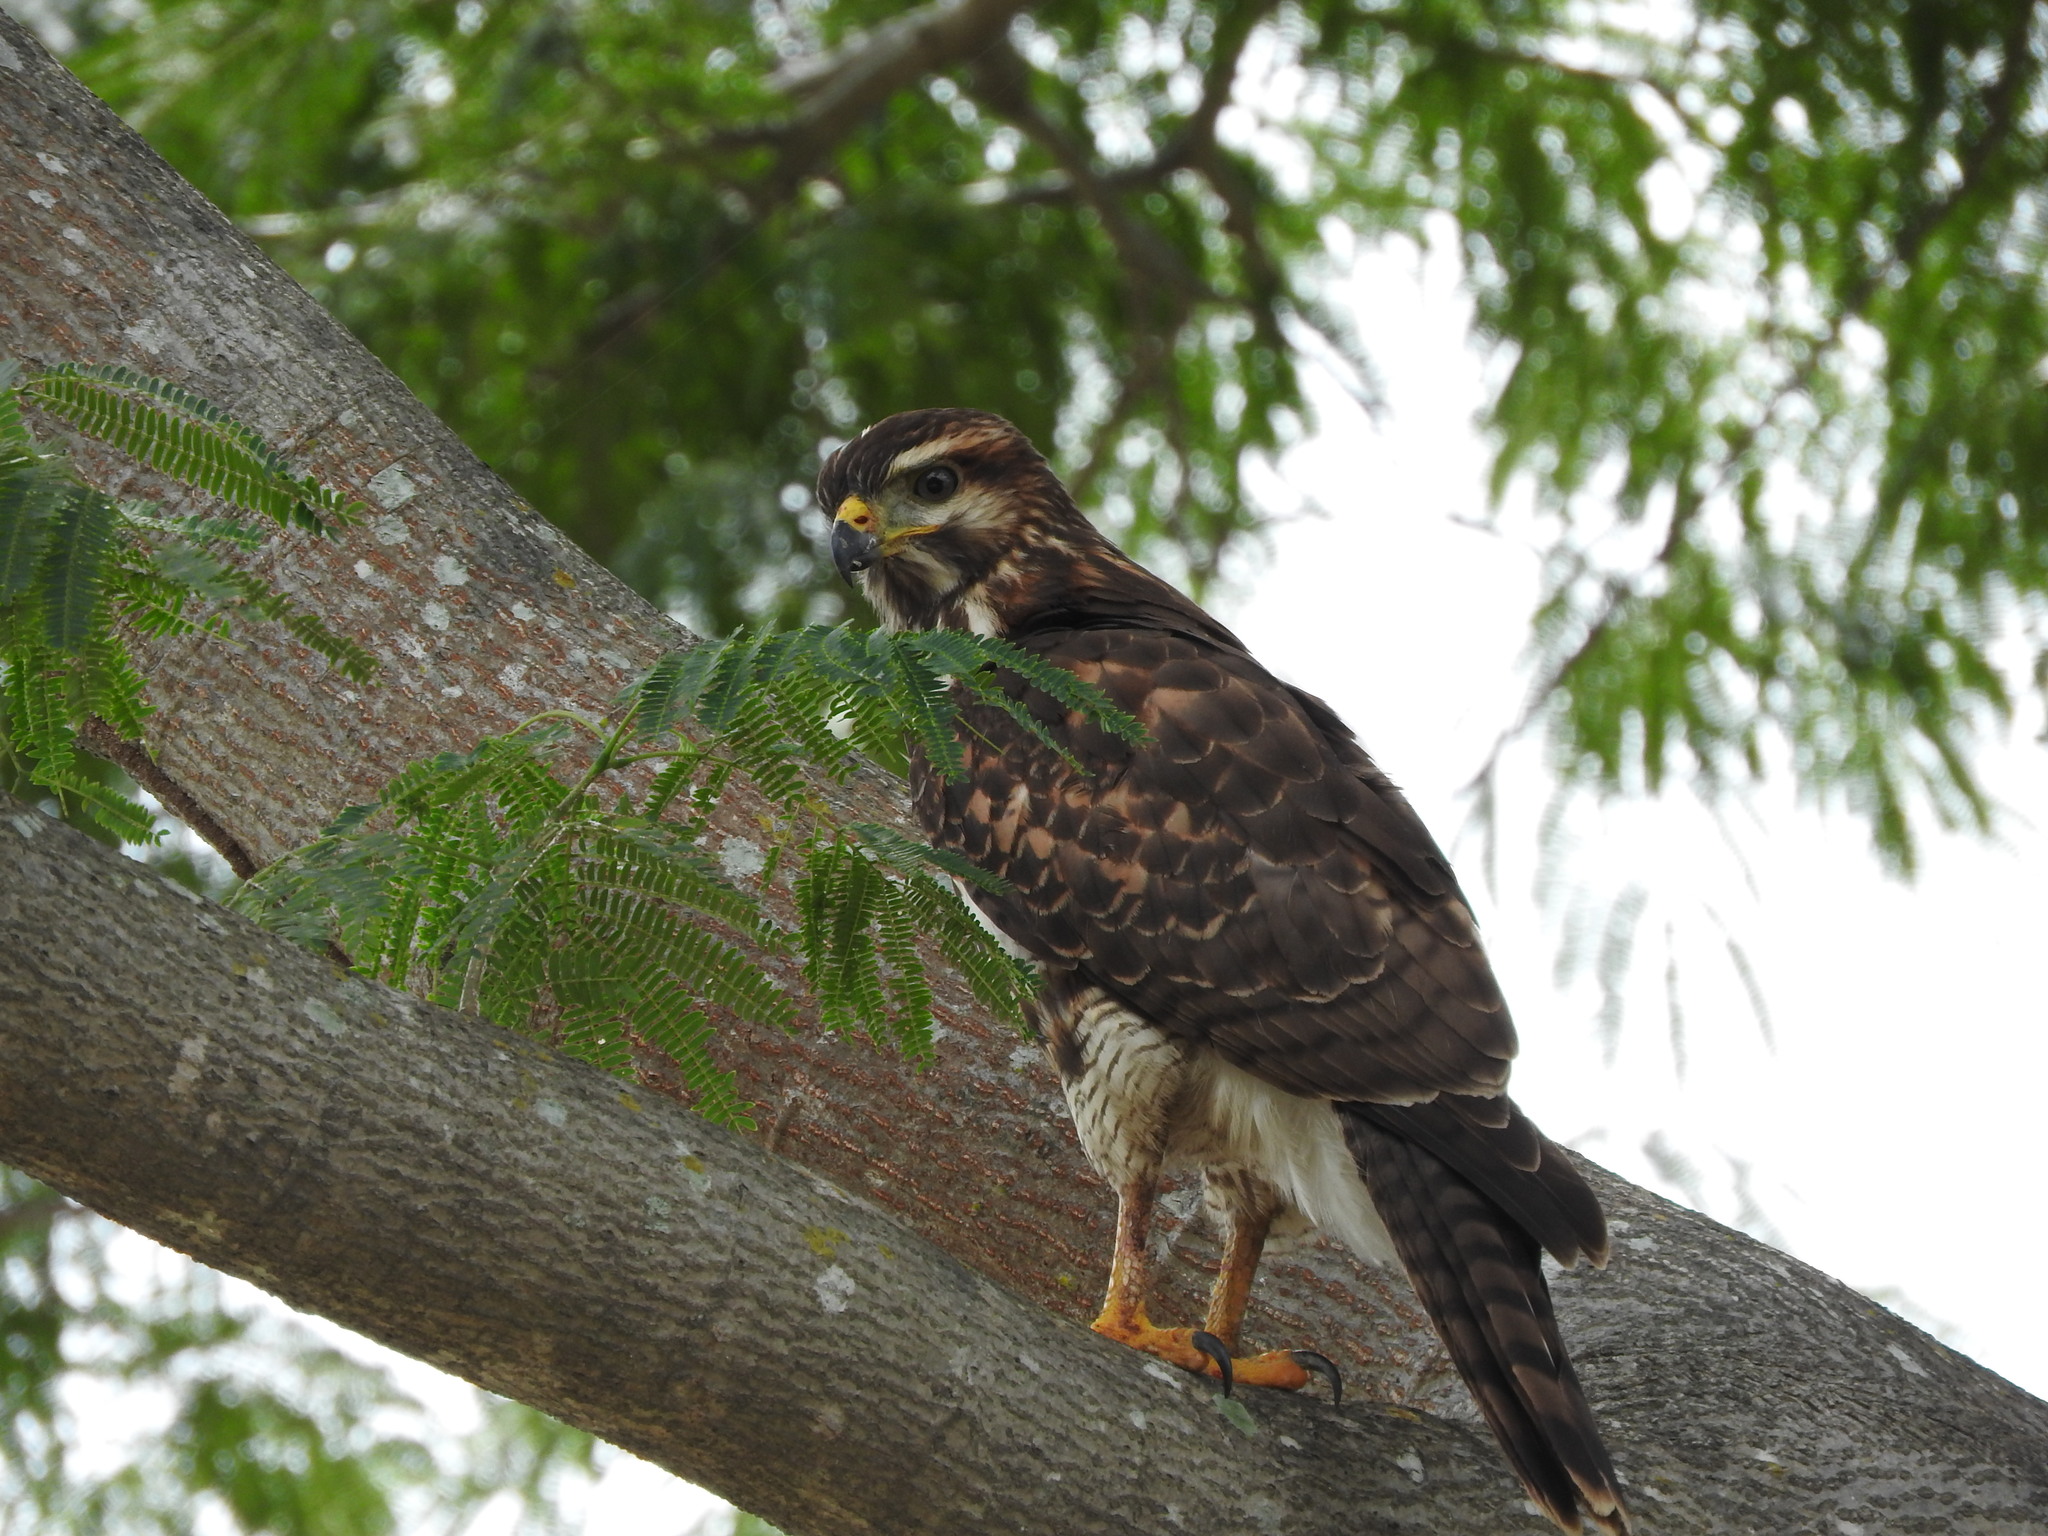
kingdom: Animalia
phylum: Chordata
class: Aves
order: Accipitriformes
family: Accipitridae
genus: Buteo
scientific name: Buteo nitidus
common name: Grey-lined hawk
